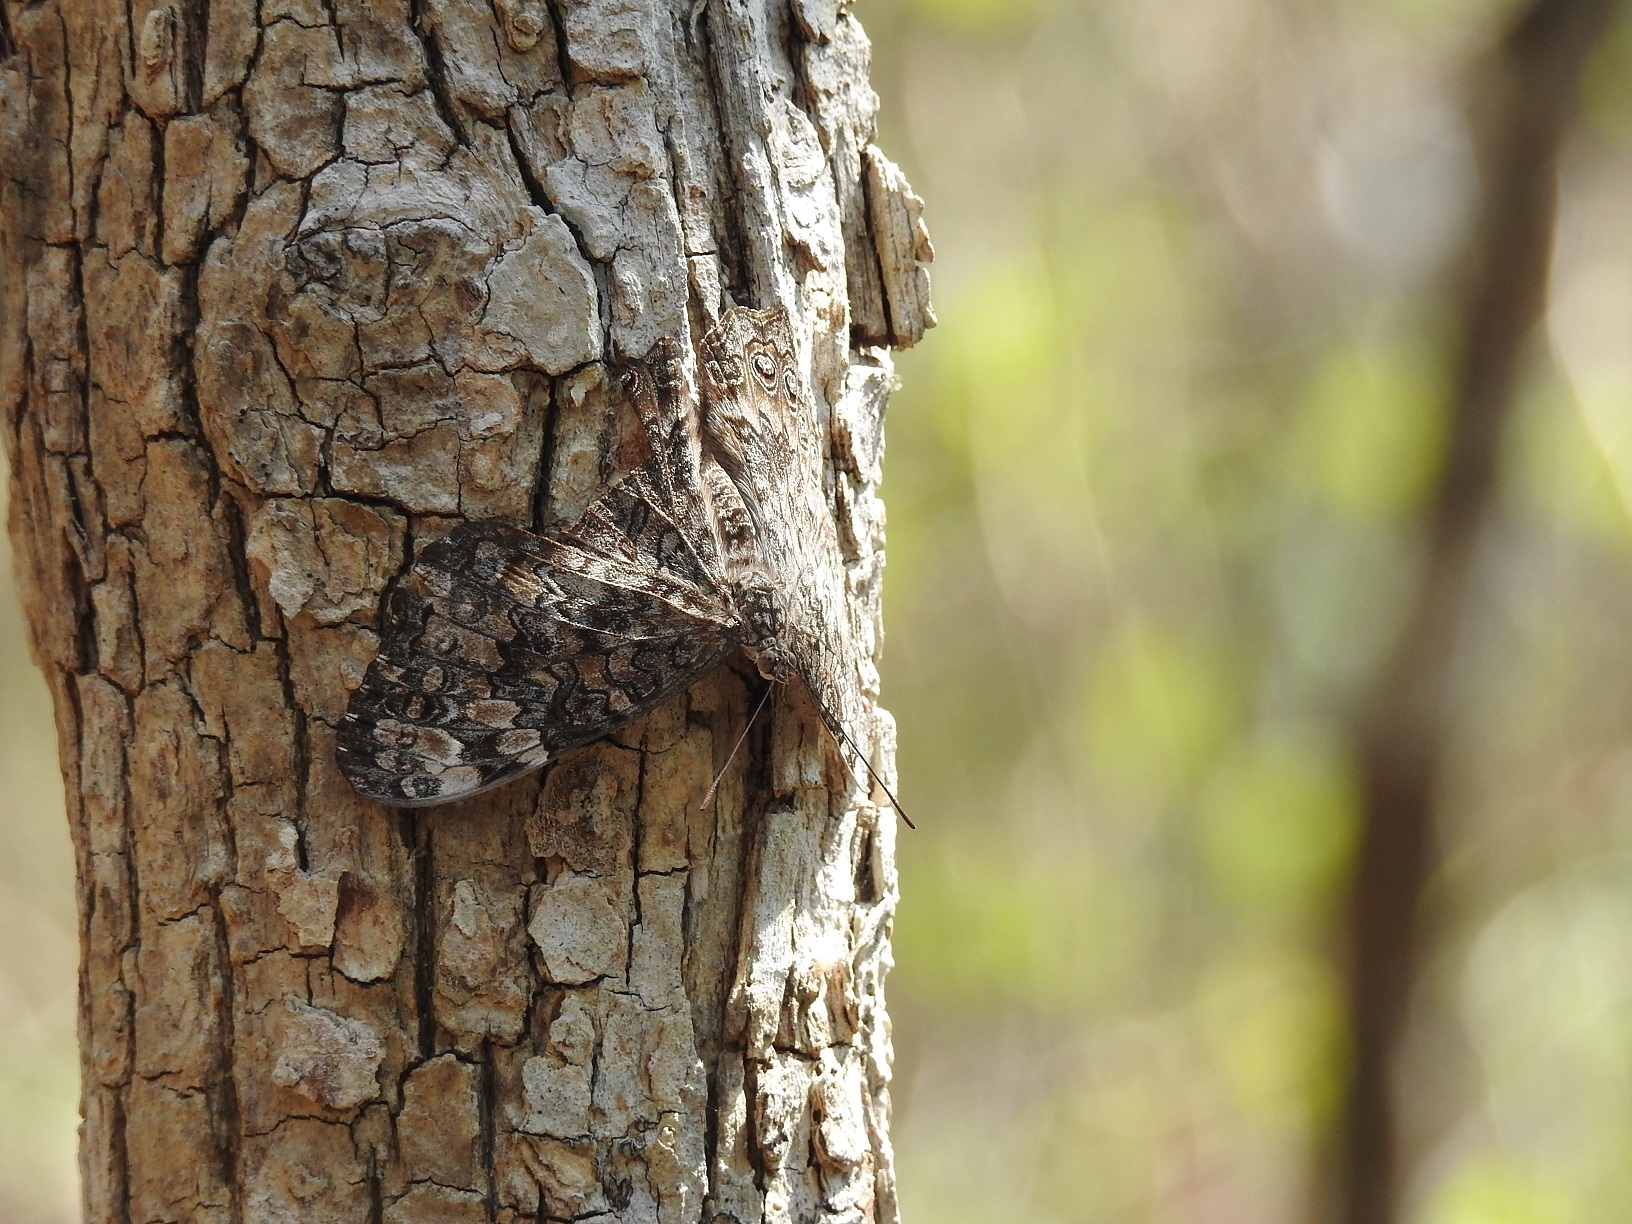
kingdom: Animalia
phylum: Arthropoda
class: Insecta
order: Lepidoptera
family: Nymphalidae
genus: Hamadryas
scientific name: Hamadryas februa
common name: Gray cracker
